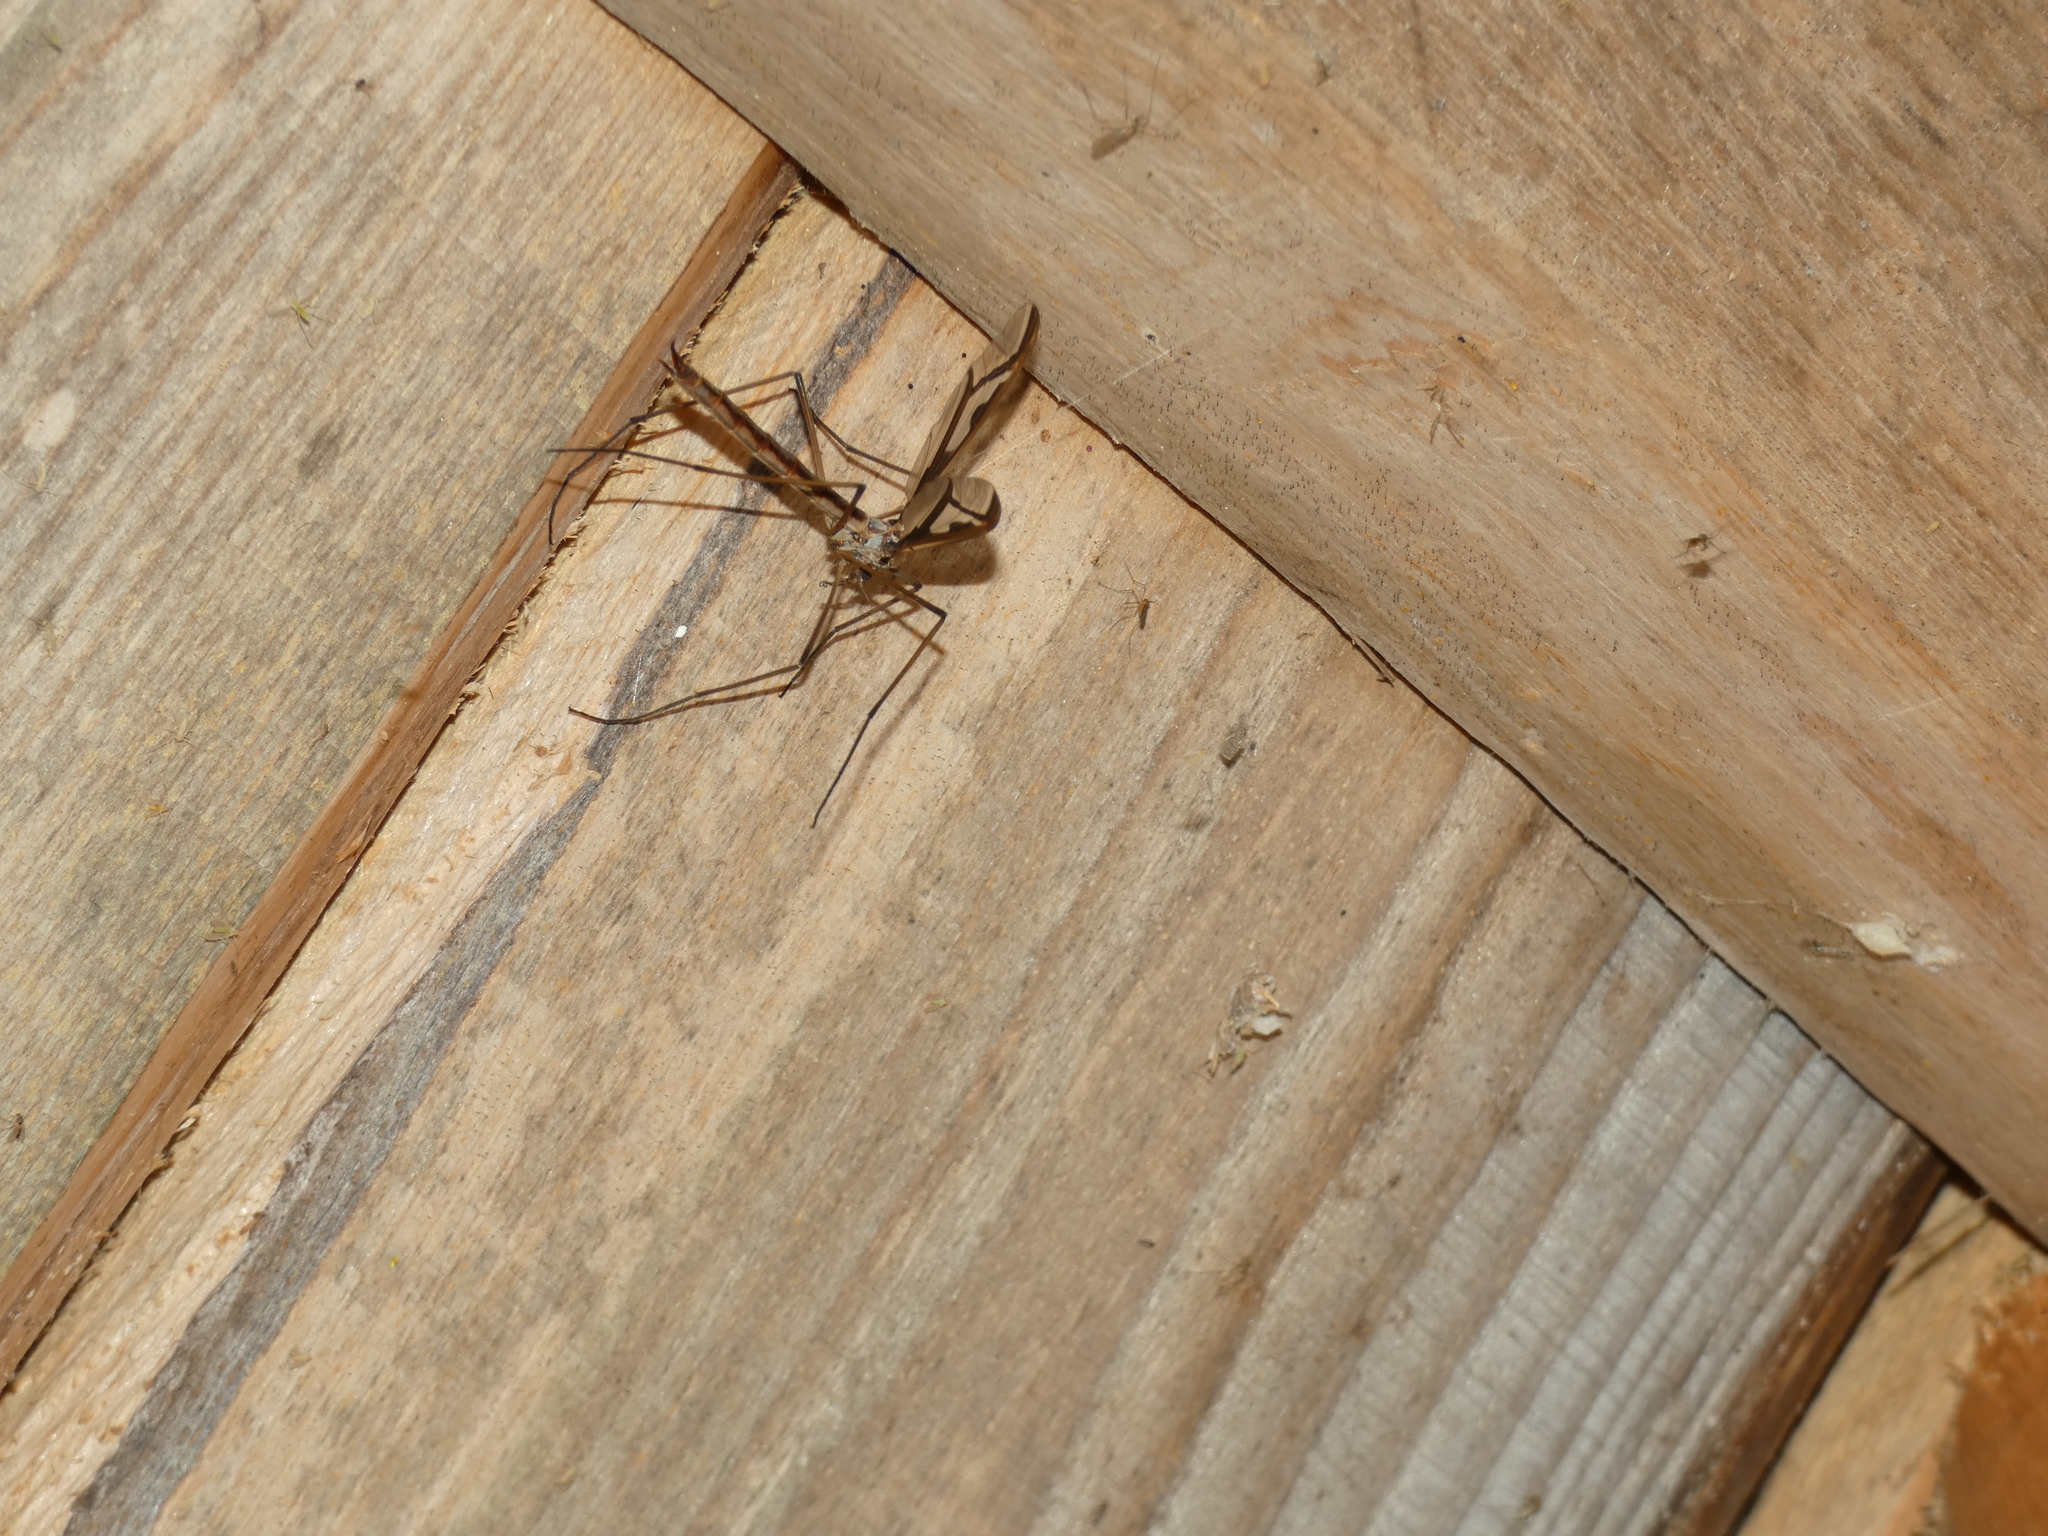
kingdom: Animalia
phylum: Arthropoda
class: Insecta
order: Diptera
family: Pediciidae
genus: Pedicia
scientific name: Pedicia rivosa
